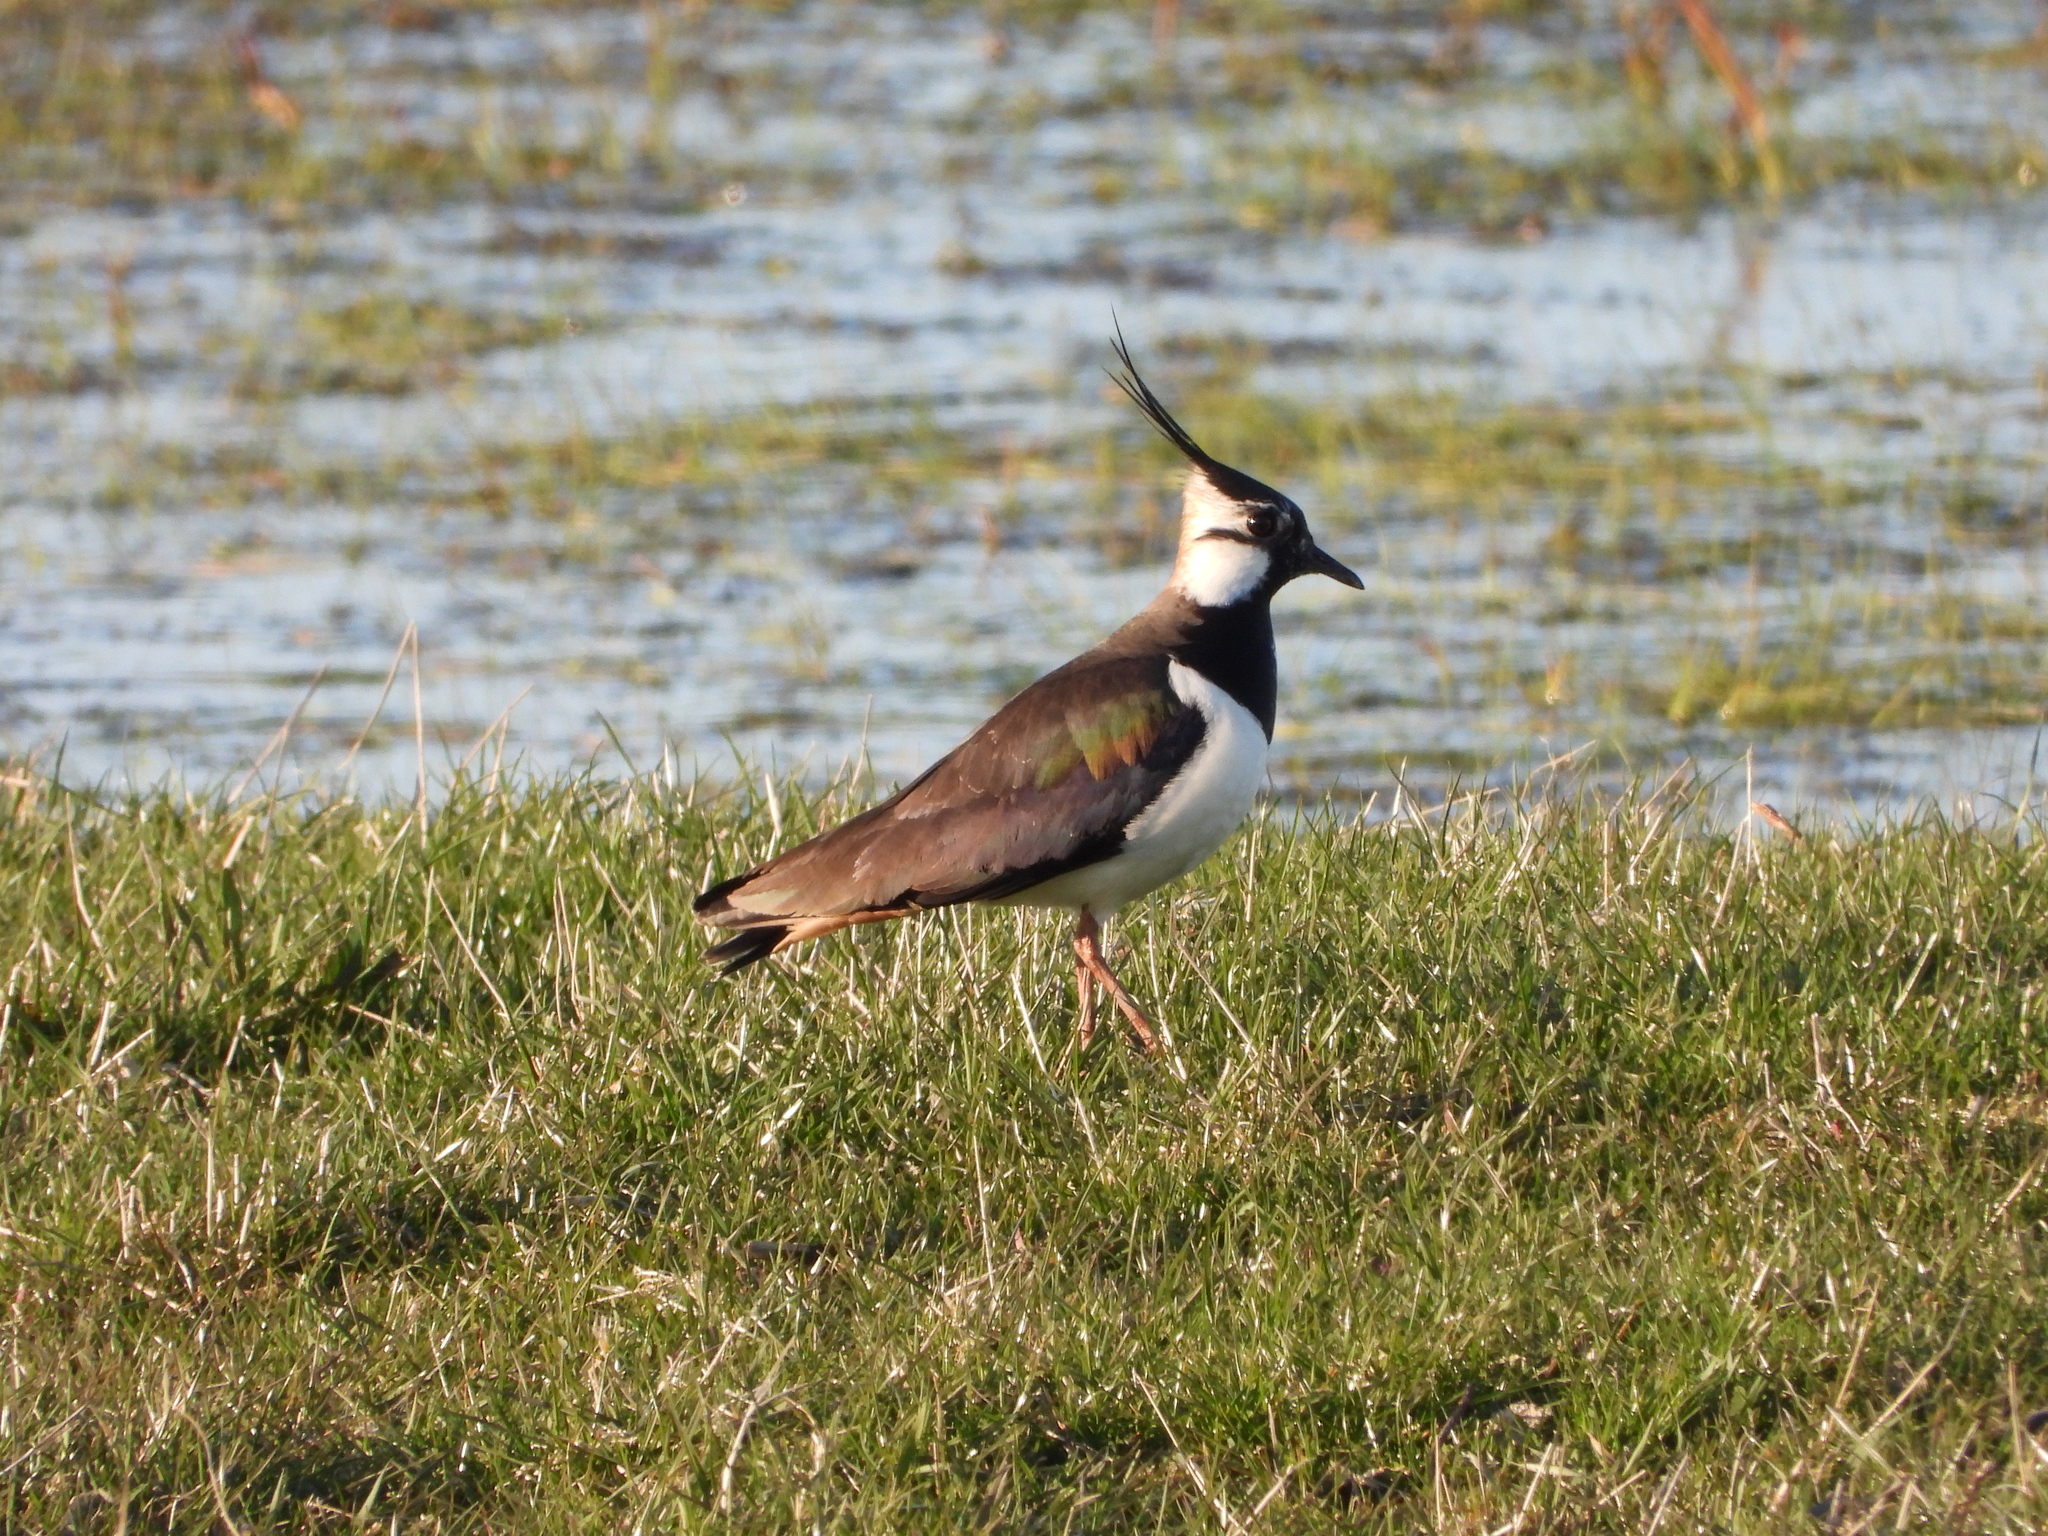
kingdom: Animalia
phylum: Chordata
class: Aves
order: Charadriiformes
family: Charadriidae
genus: Vanellus
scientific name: Vanellus vanellus
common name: Northern lapwing
